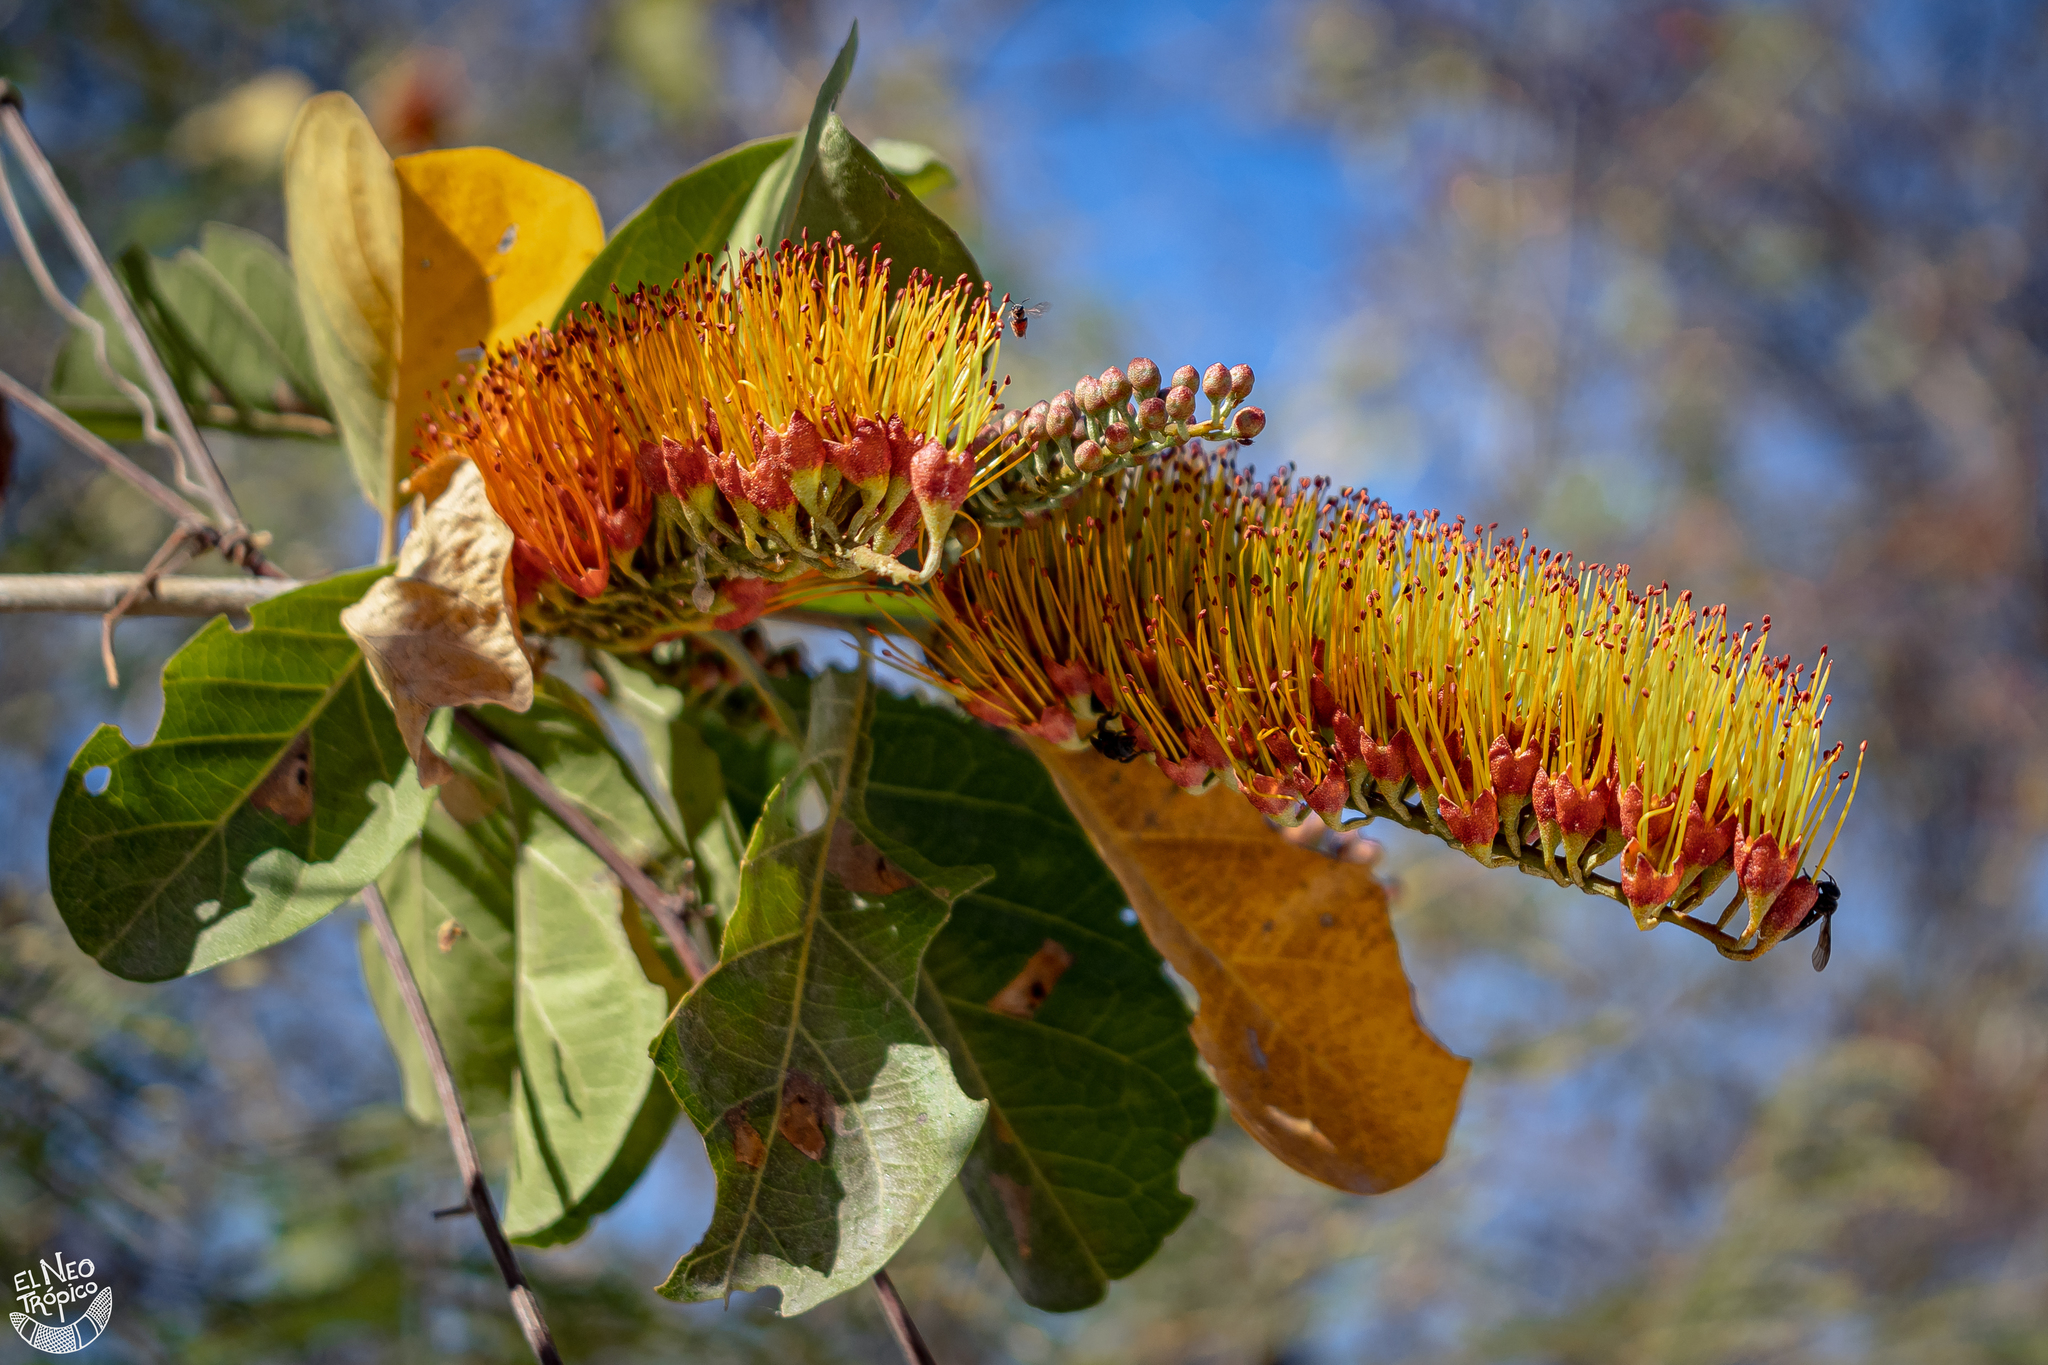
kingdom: Plantae
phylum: Tracheophyta
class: Magnoliopsida
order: Myrtales
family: Combretaceae
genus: Combretum
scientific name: Combretum farinosum
